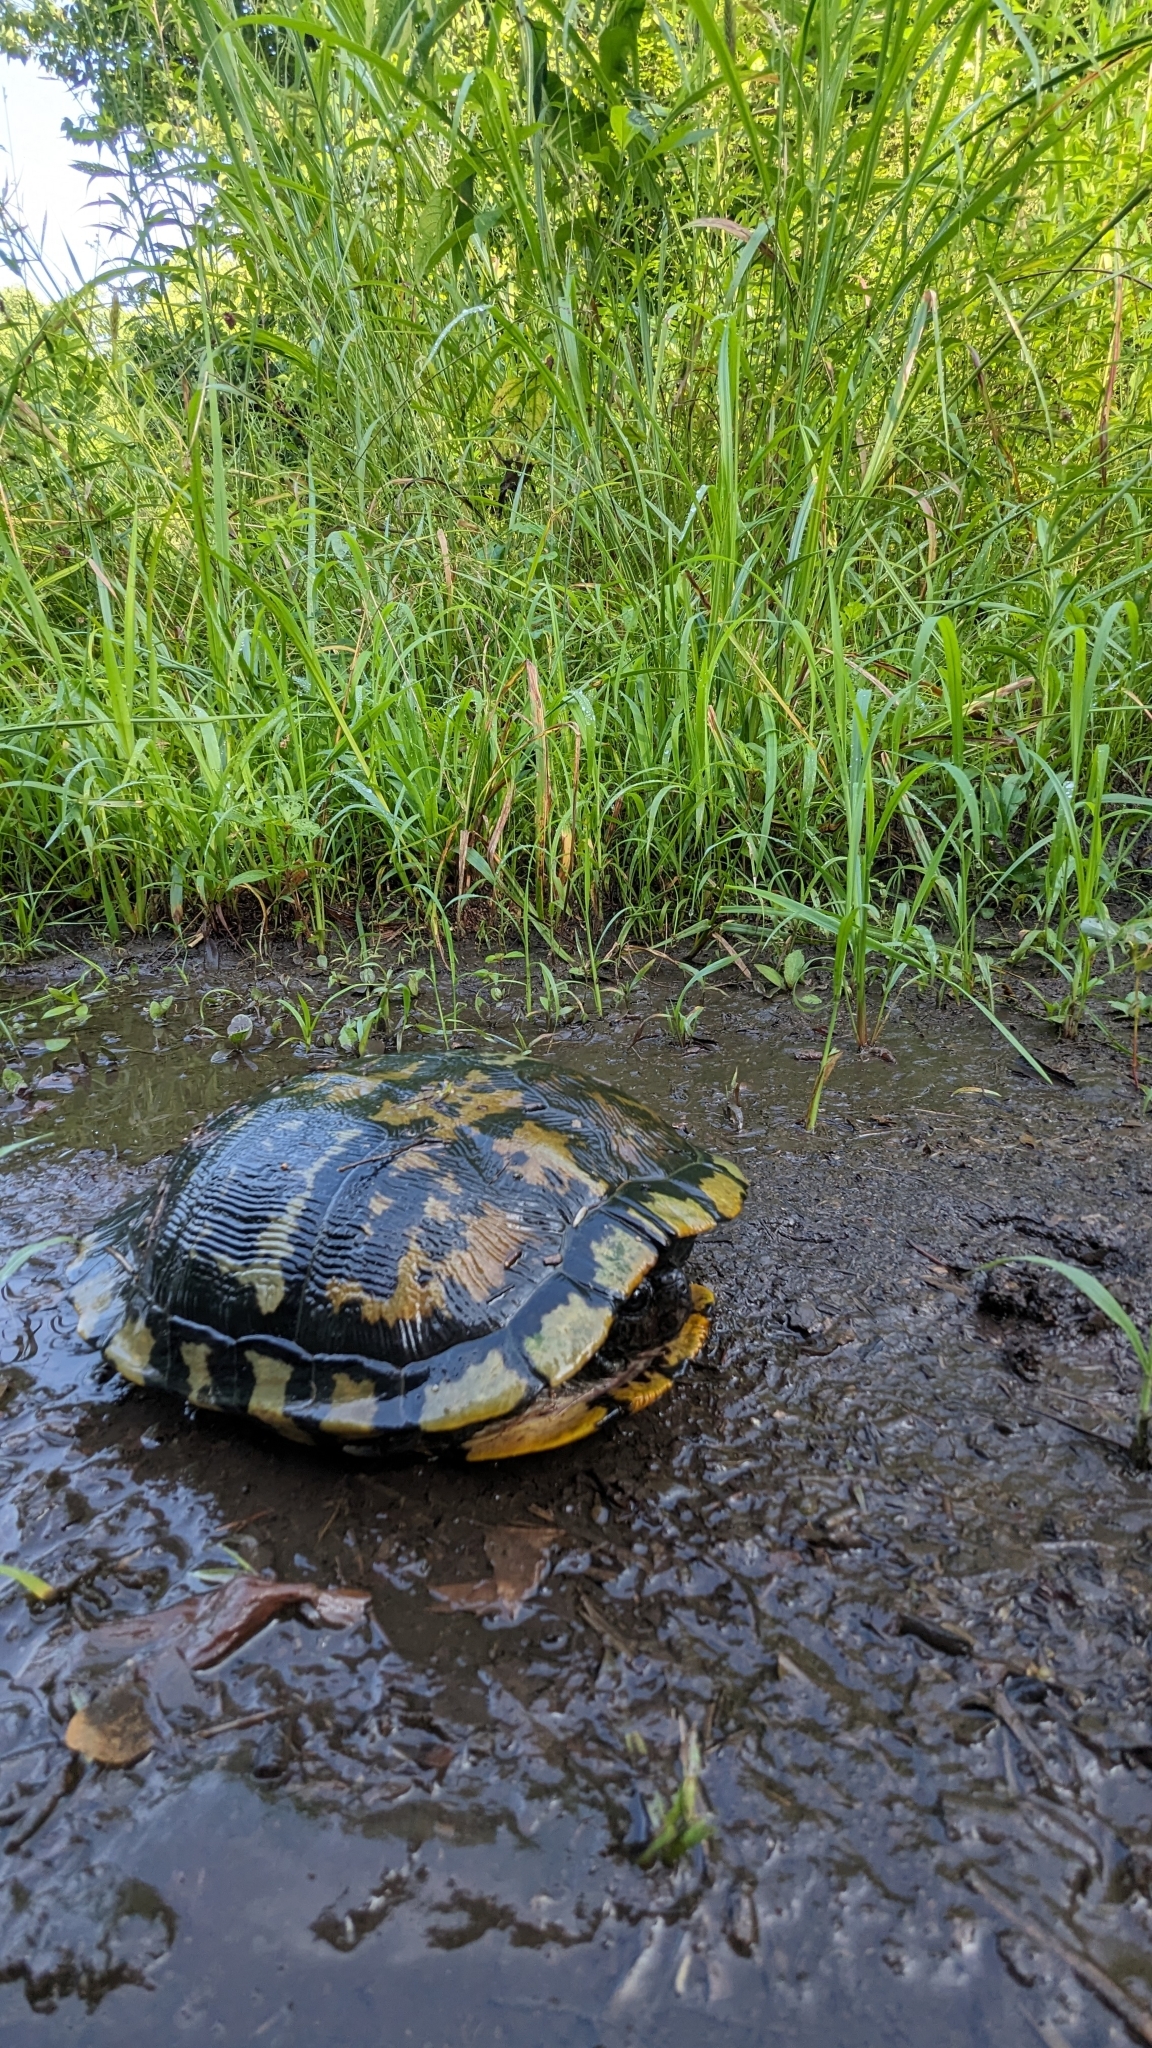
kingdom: Animalia
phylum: Chordata
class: Testudines
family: Emydidae
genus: Trachemys
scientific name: Trachemys scripta
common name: Slider
